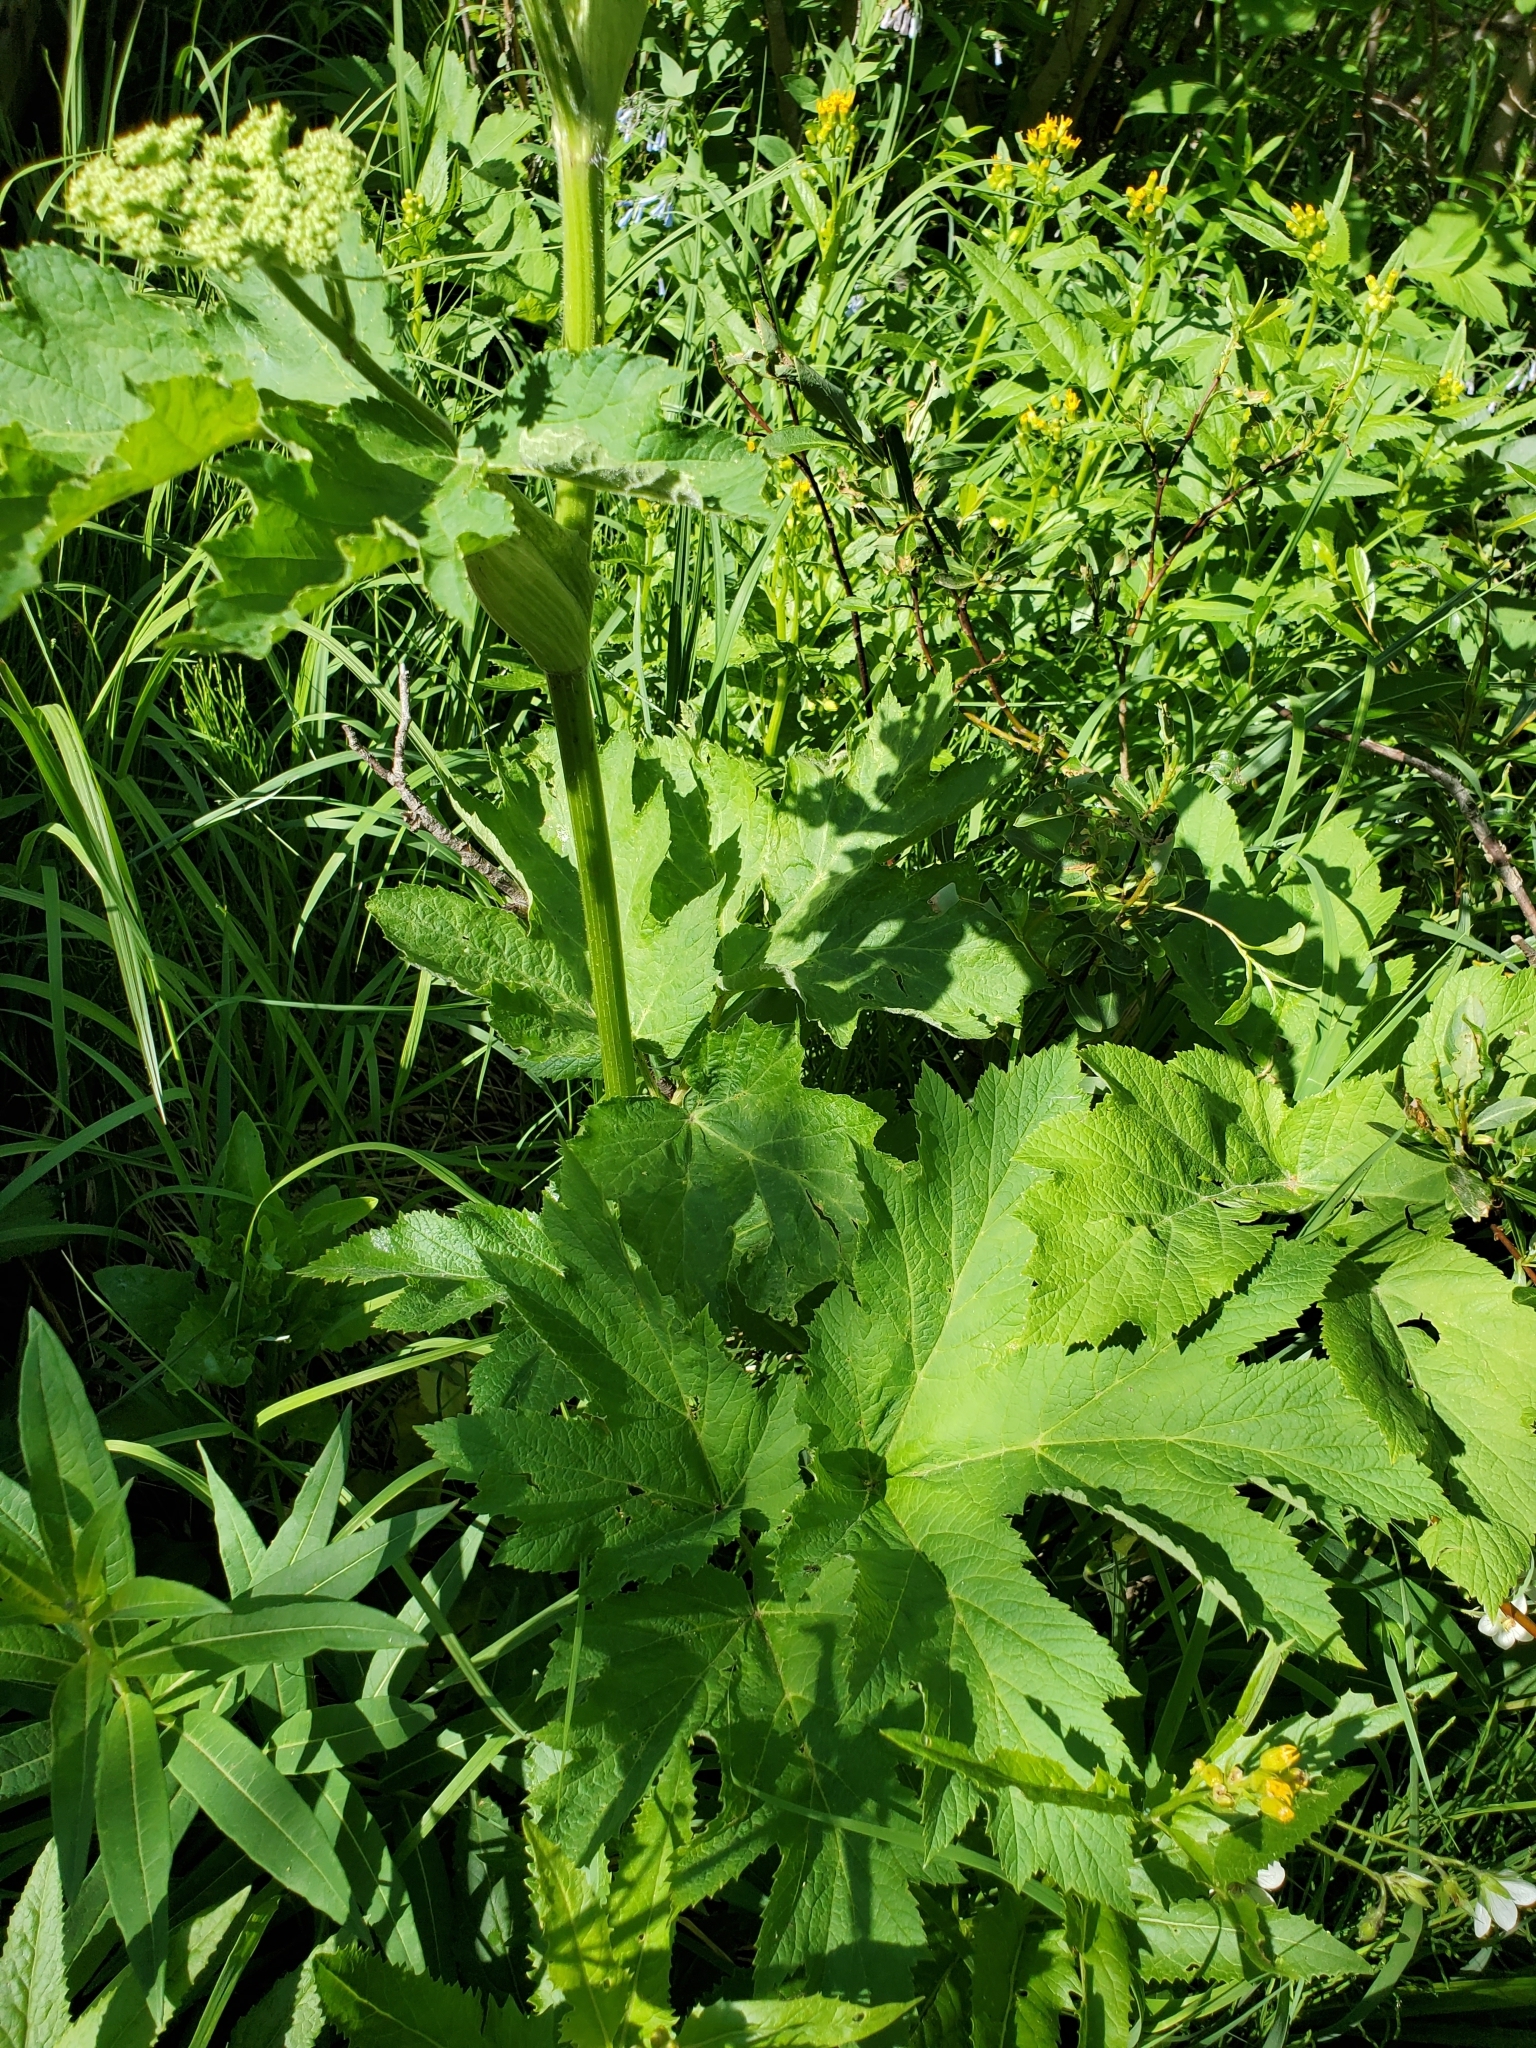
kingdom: Plantae
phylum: Tracheophyta
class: Magnoliopsida
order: Apiales
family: Apiaceae
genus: Heracleum
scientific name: Heracleum maximum
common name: American cow parsnip
